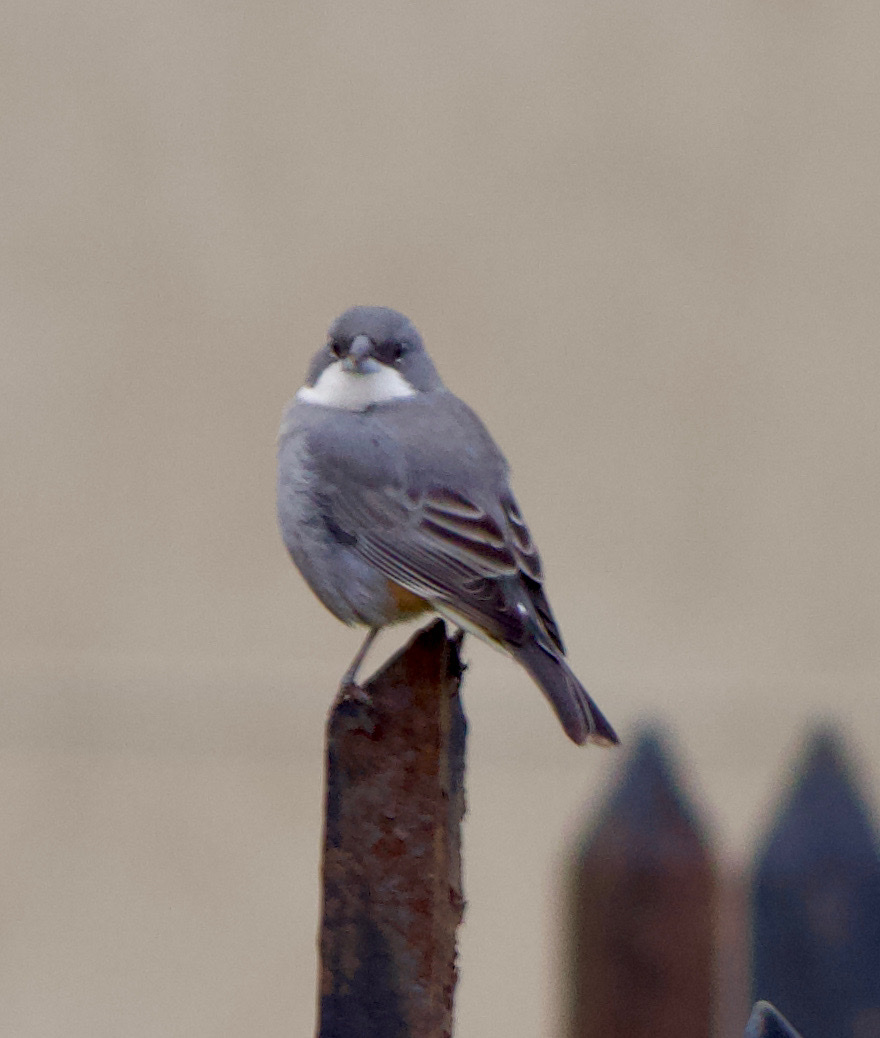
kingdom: Animalia
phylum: Chordata
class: Aves
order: Passeriformes
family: Thraupidae
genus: Diuca
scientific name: Diuca diuca
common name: Common diuca finch
